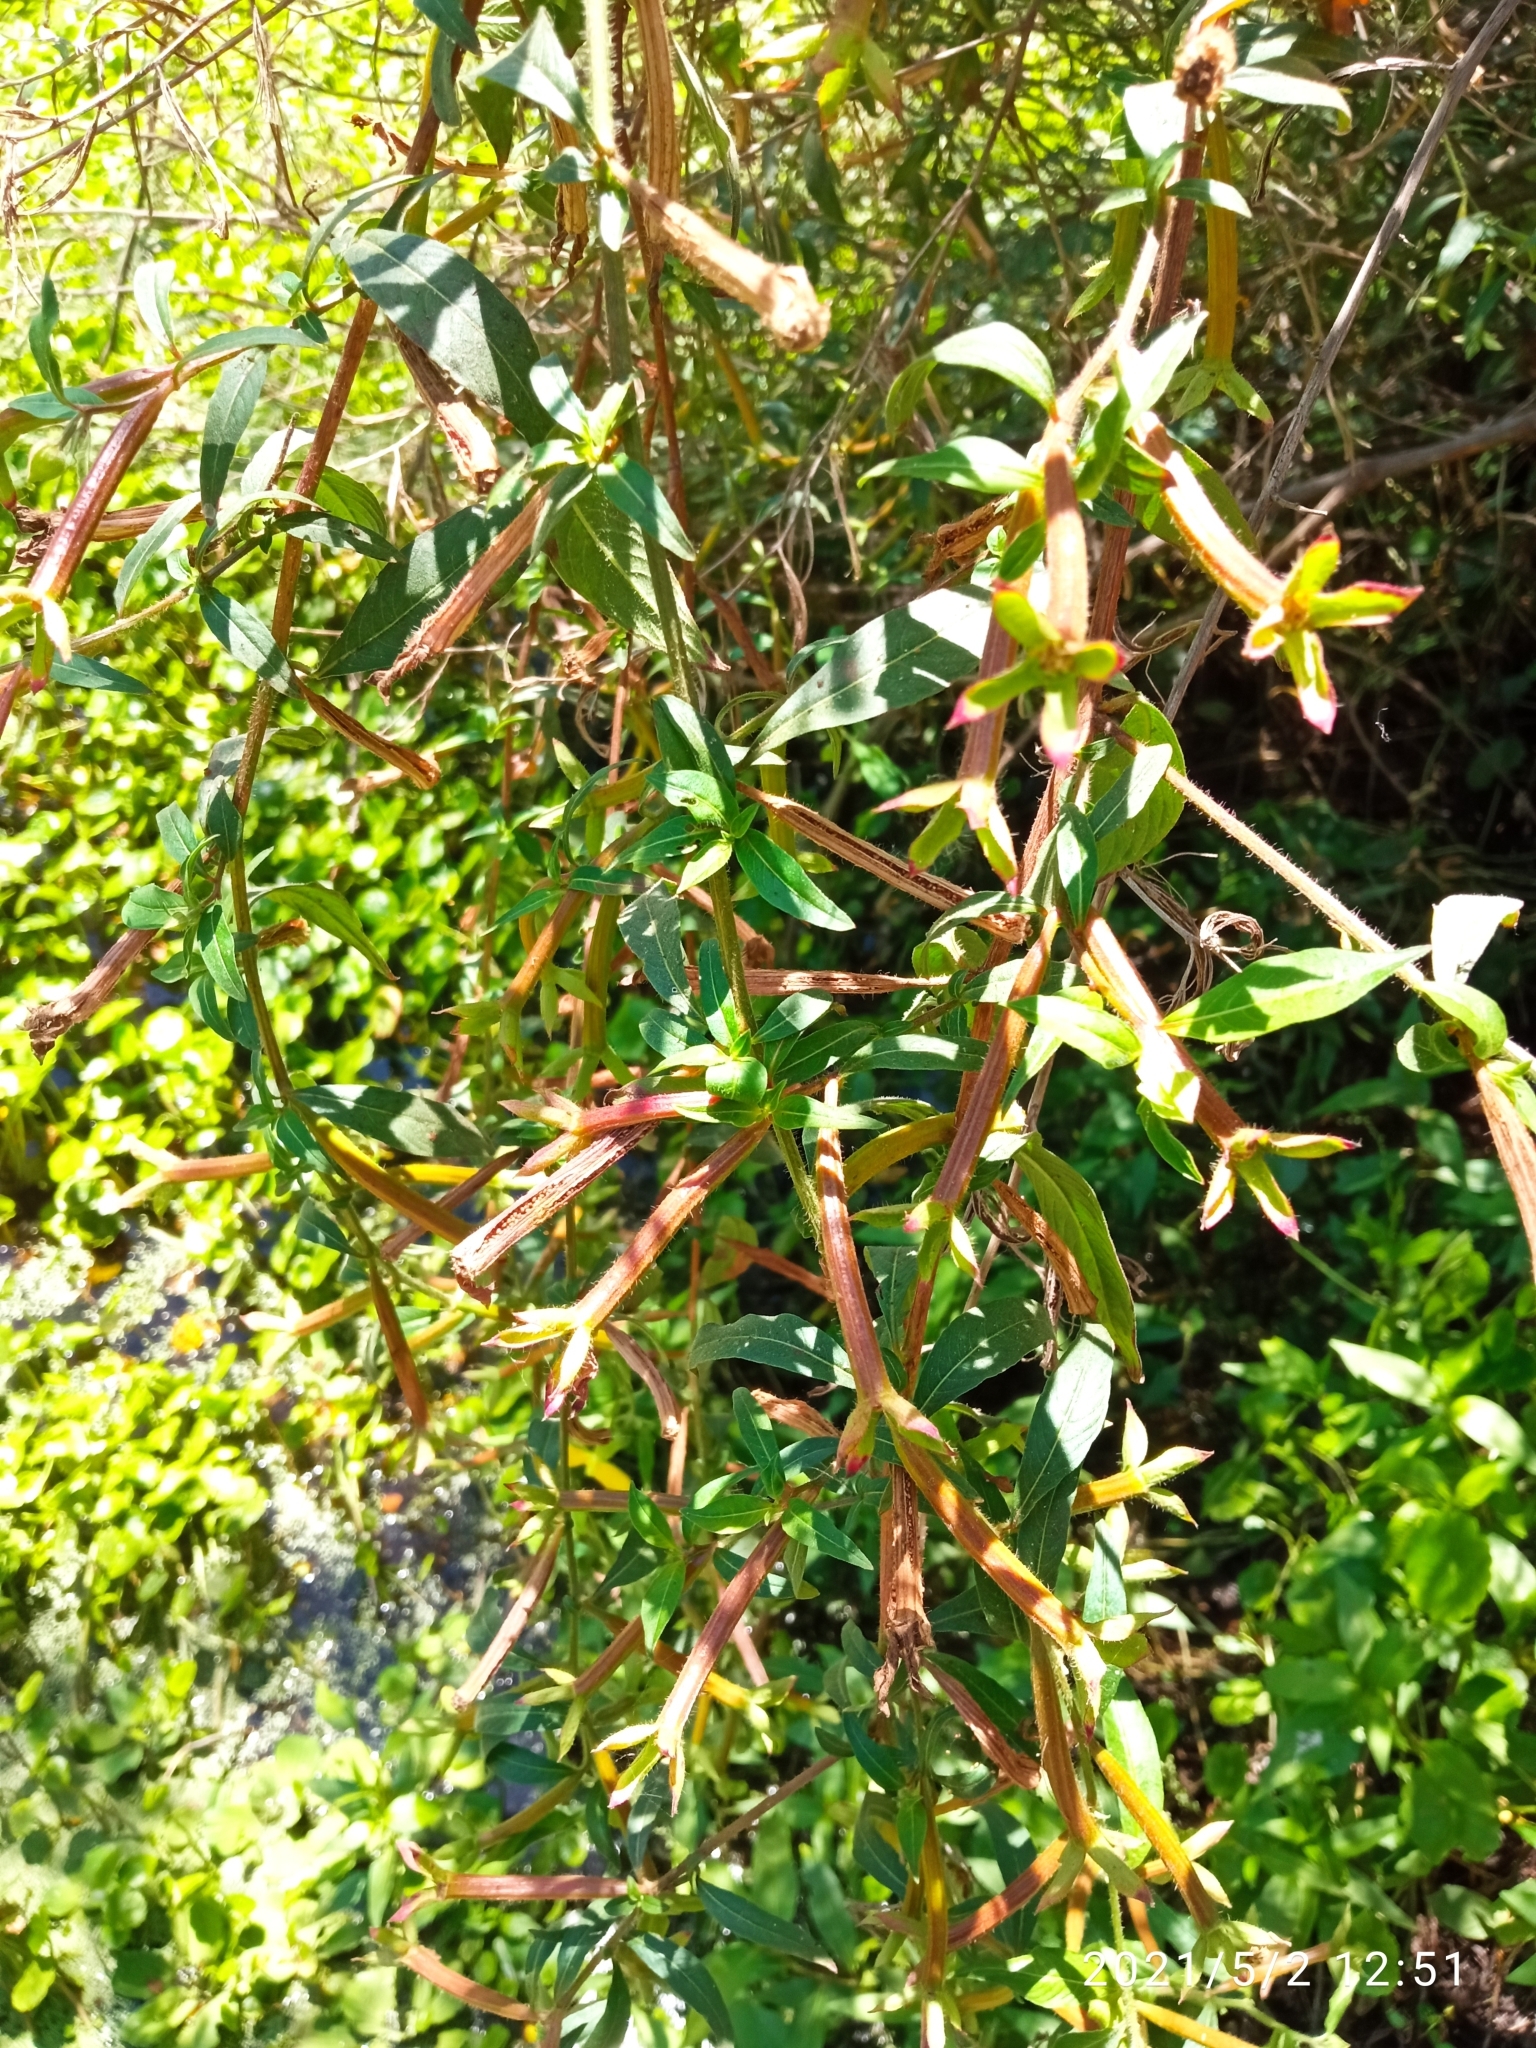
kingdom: Plantae
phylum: Tracheophyta
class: Magnoliopsida
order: Myrtales
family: Onagraceae
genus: Ludwigia
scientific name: Ludwigia octovalvis
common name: Water-primrose
